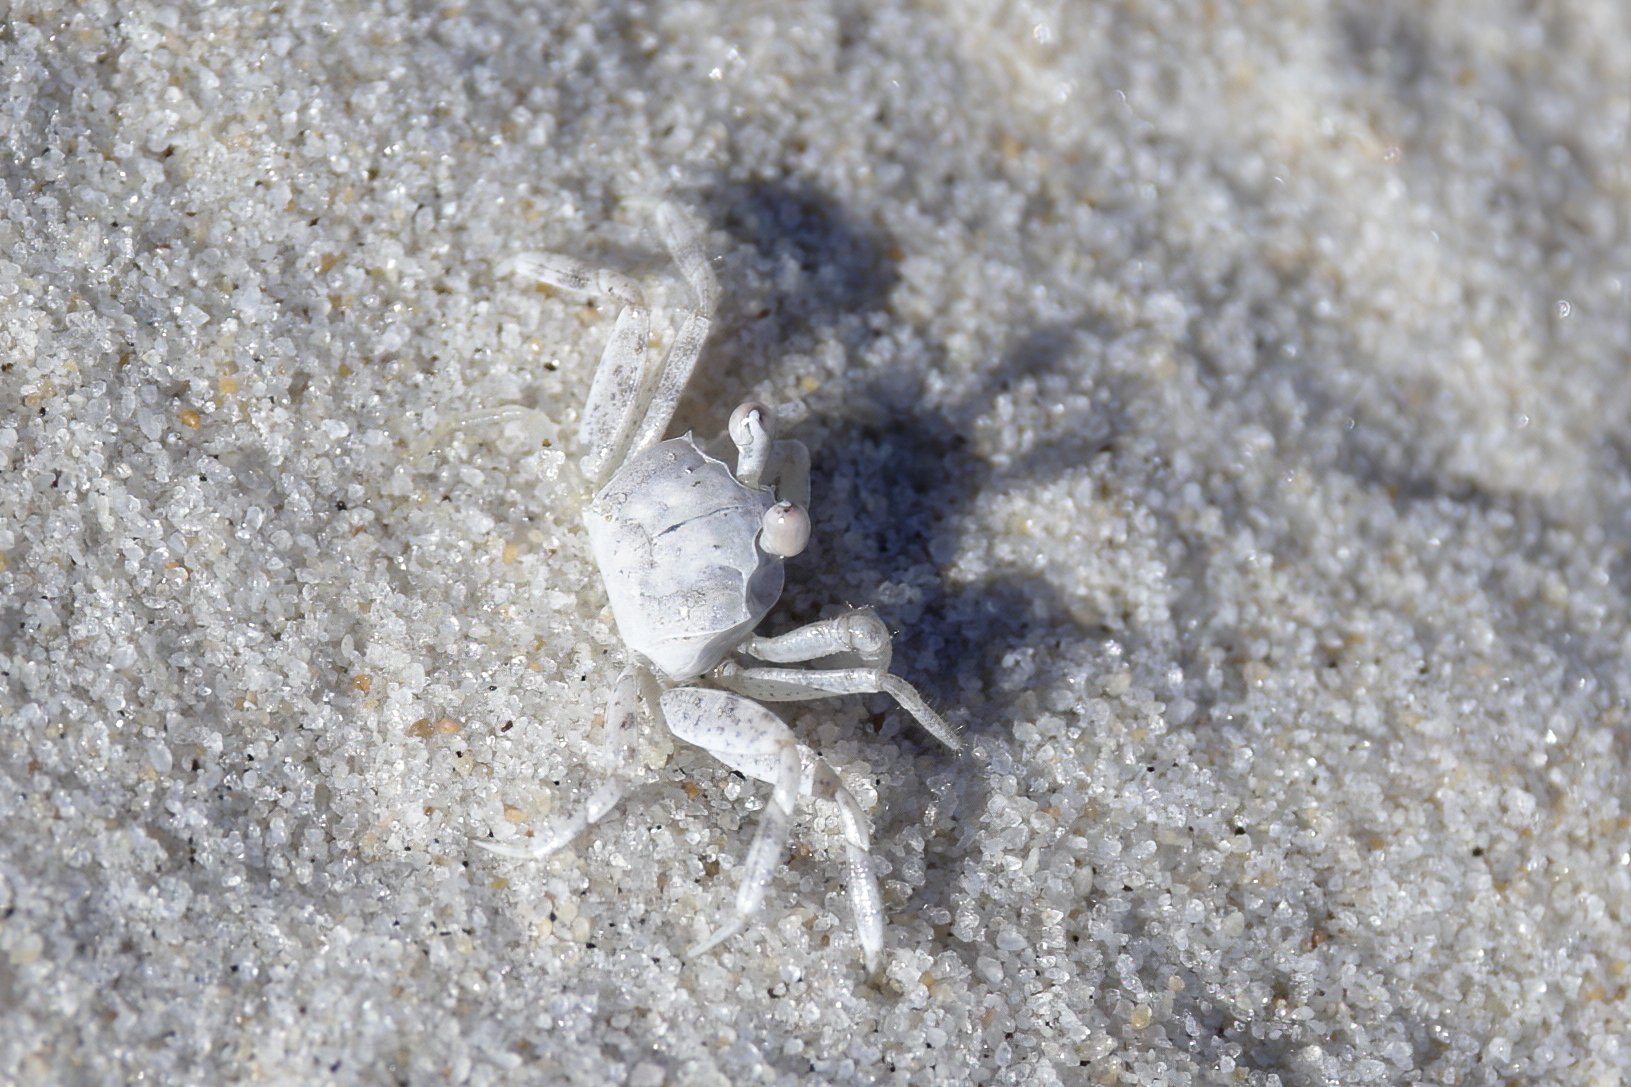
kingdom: Animalia
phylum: Arthropoda
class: Malacostraca
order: Decapoda
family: Ocypodidae
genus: Ocypode
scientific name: Ocypode quadrata
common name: Ghost crab
